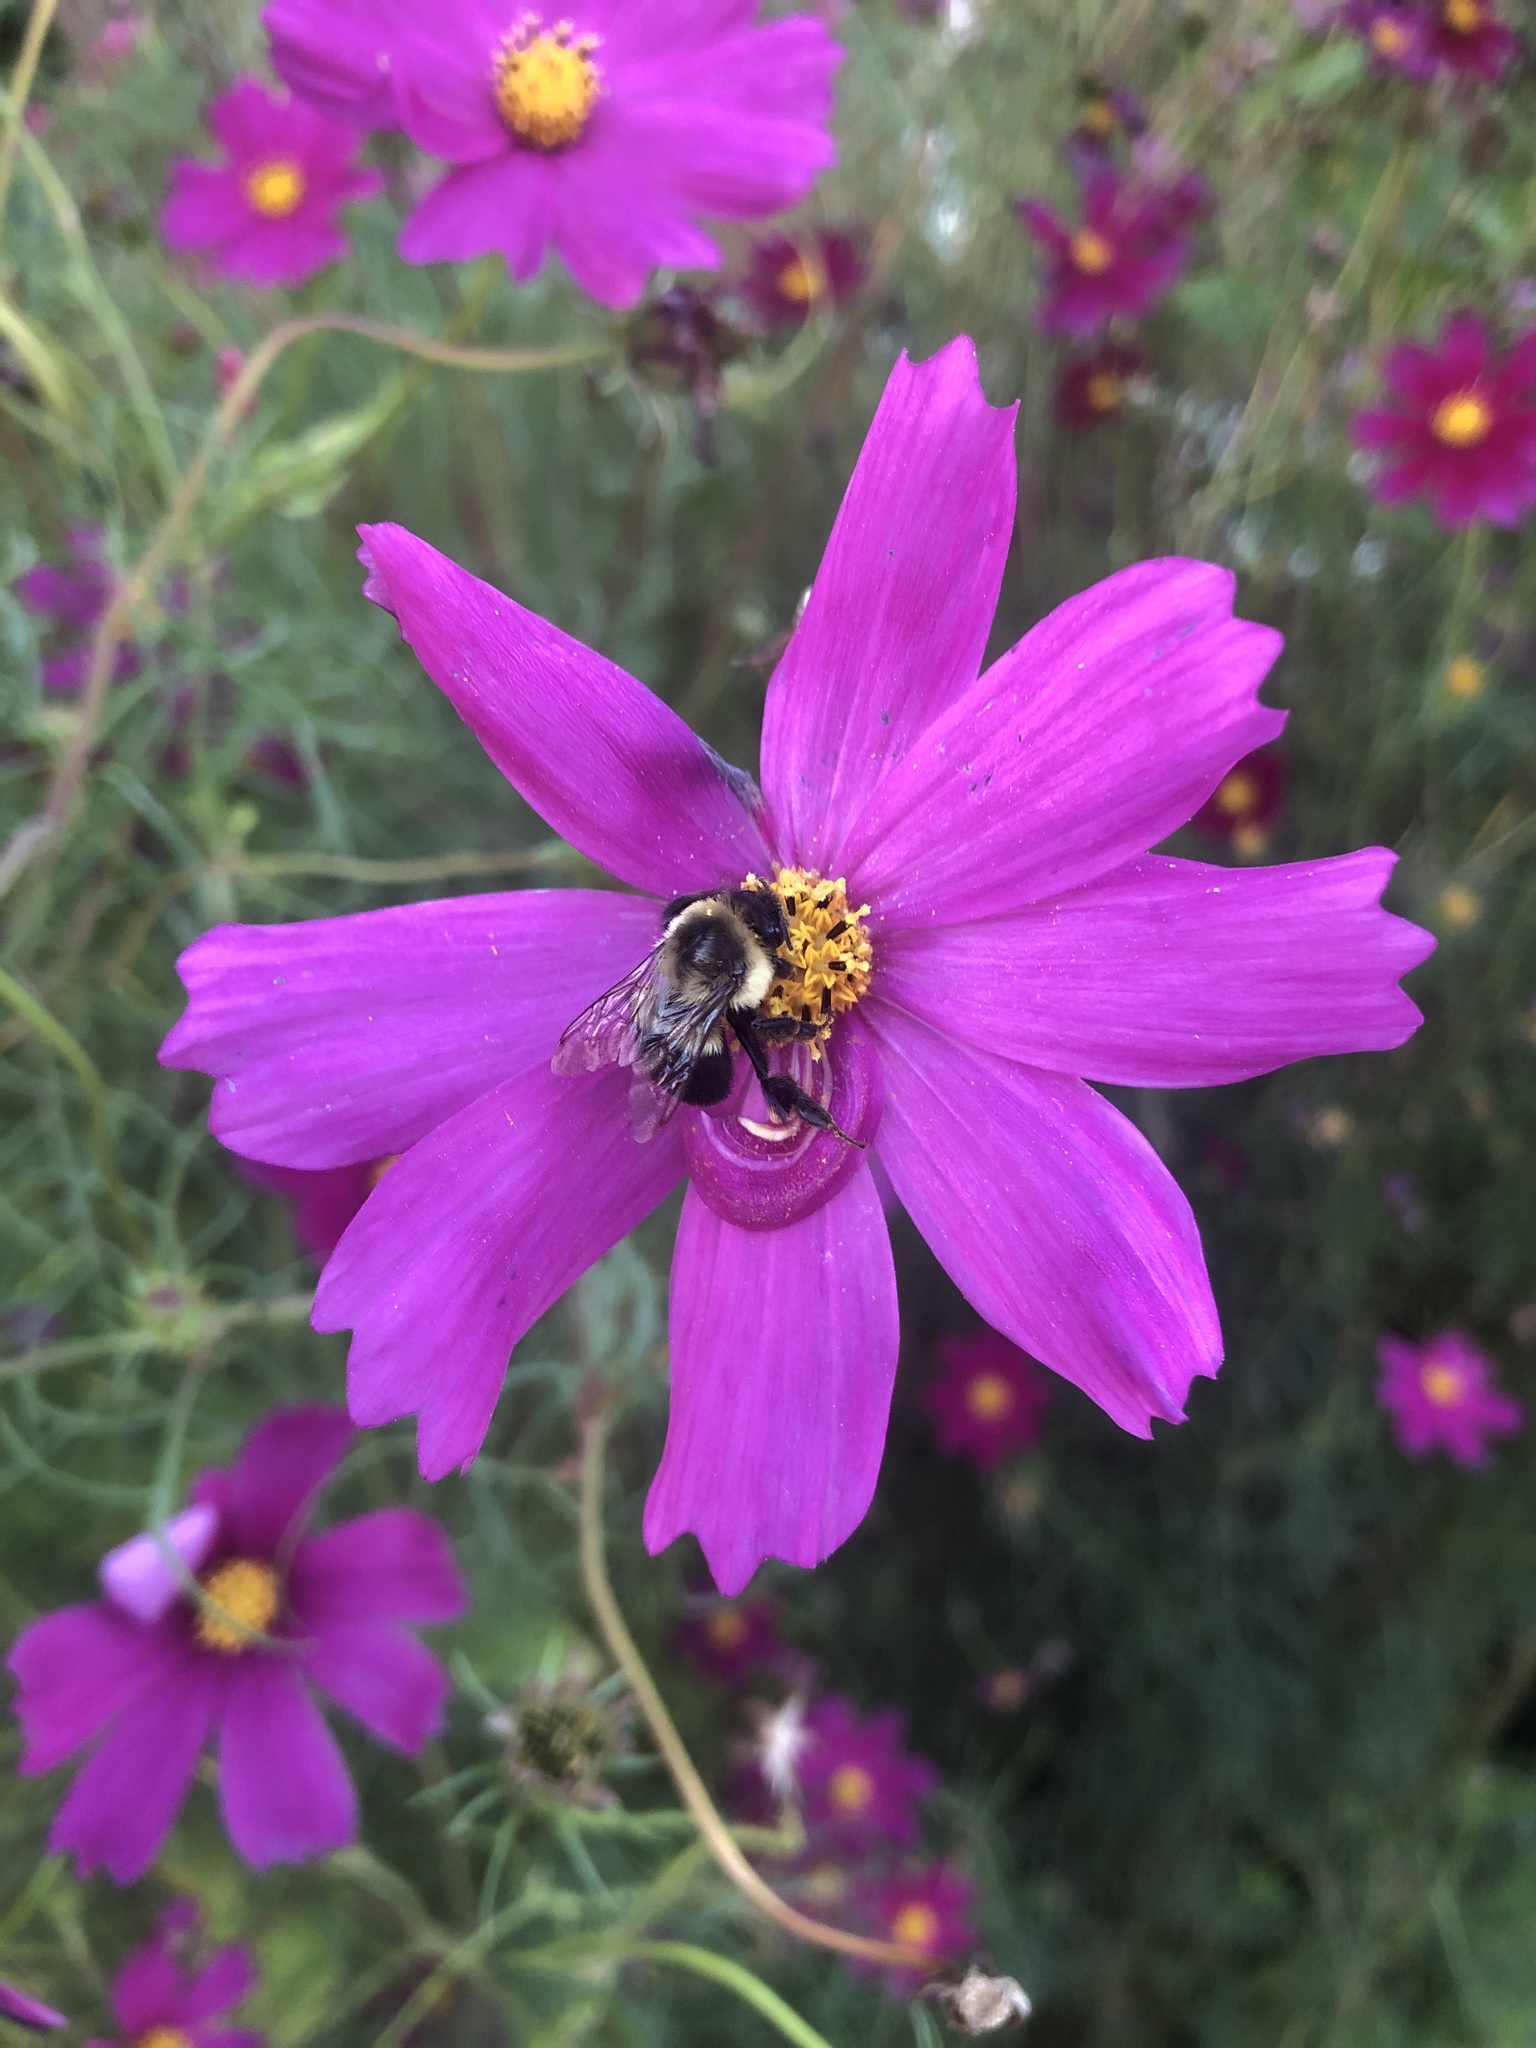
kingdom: Plantae
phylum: Tracheophyta
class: Magnoliopsida
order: Asterales
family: Asteraceae
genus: Cosmos
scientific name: Cosmos bipinnatus
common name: Garden cosmos
